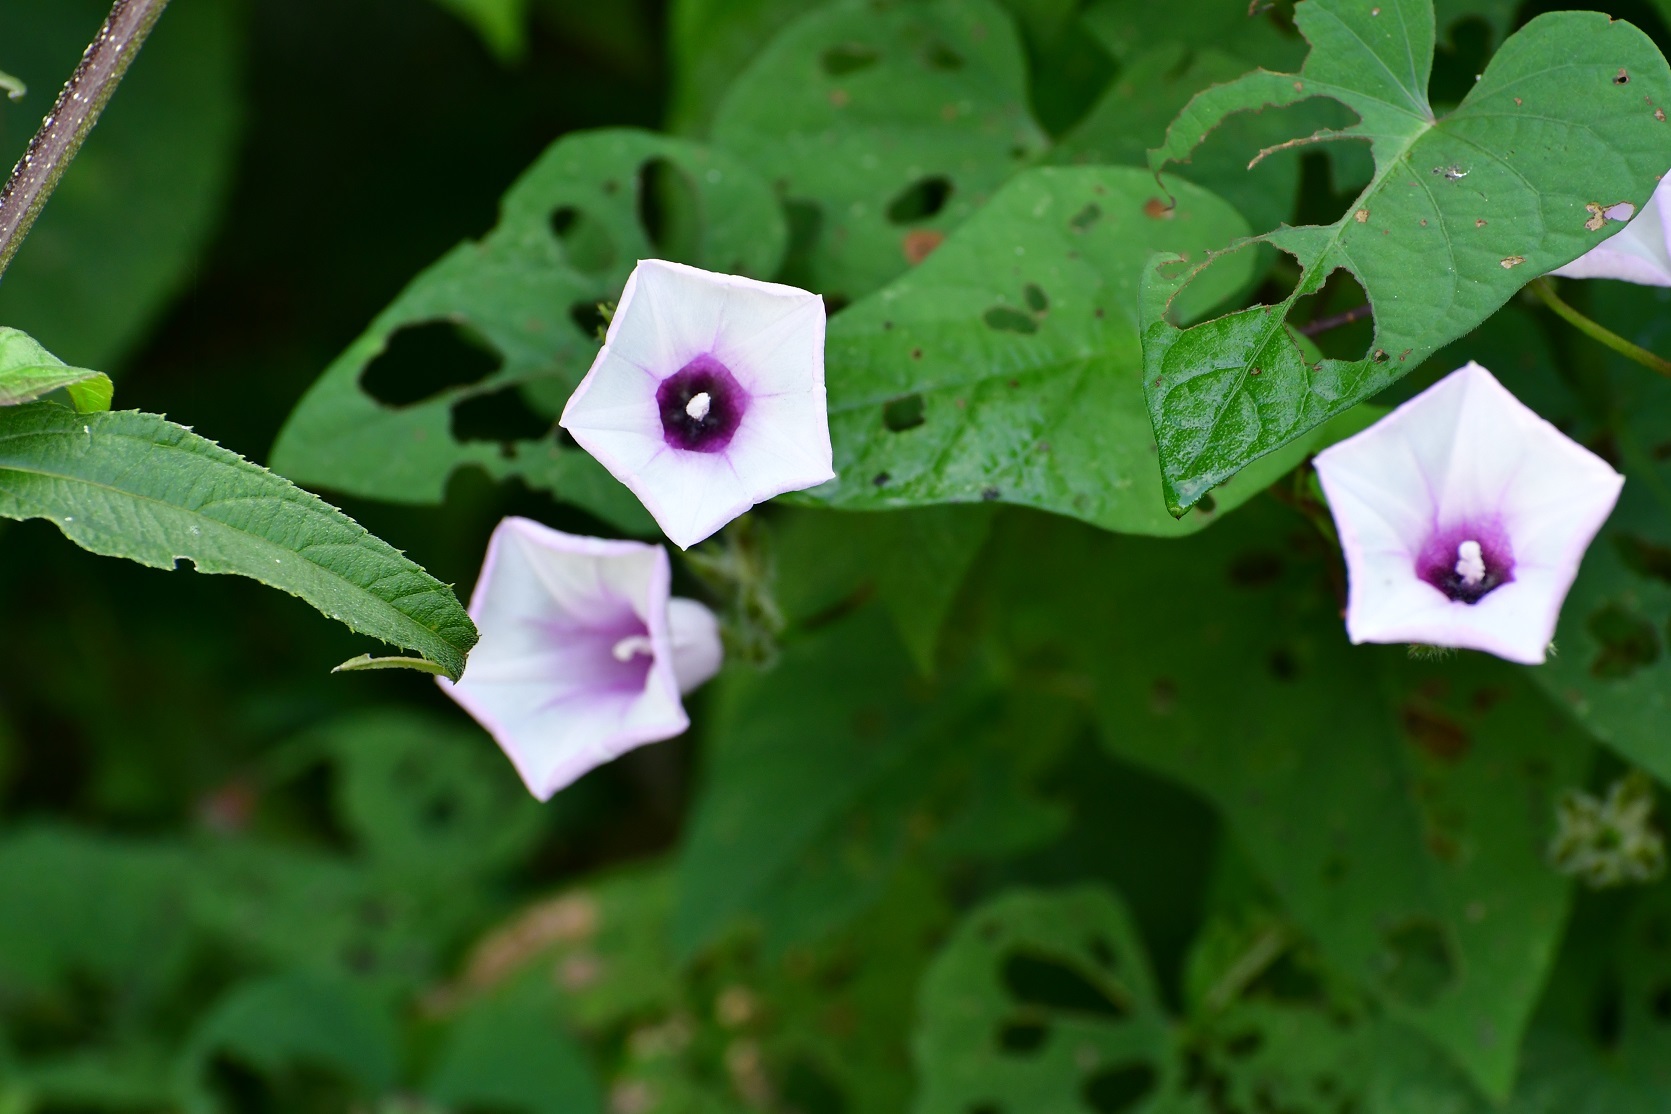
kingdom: Plantae
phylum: Tracheophyta
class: Magnoliopsida
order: Solanales
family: Convolvulaceae
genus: Ipomoea
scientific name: Ipomoea trifida
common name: Cotton morningglory
